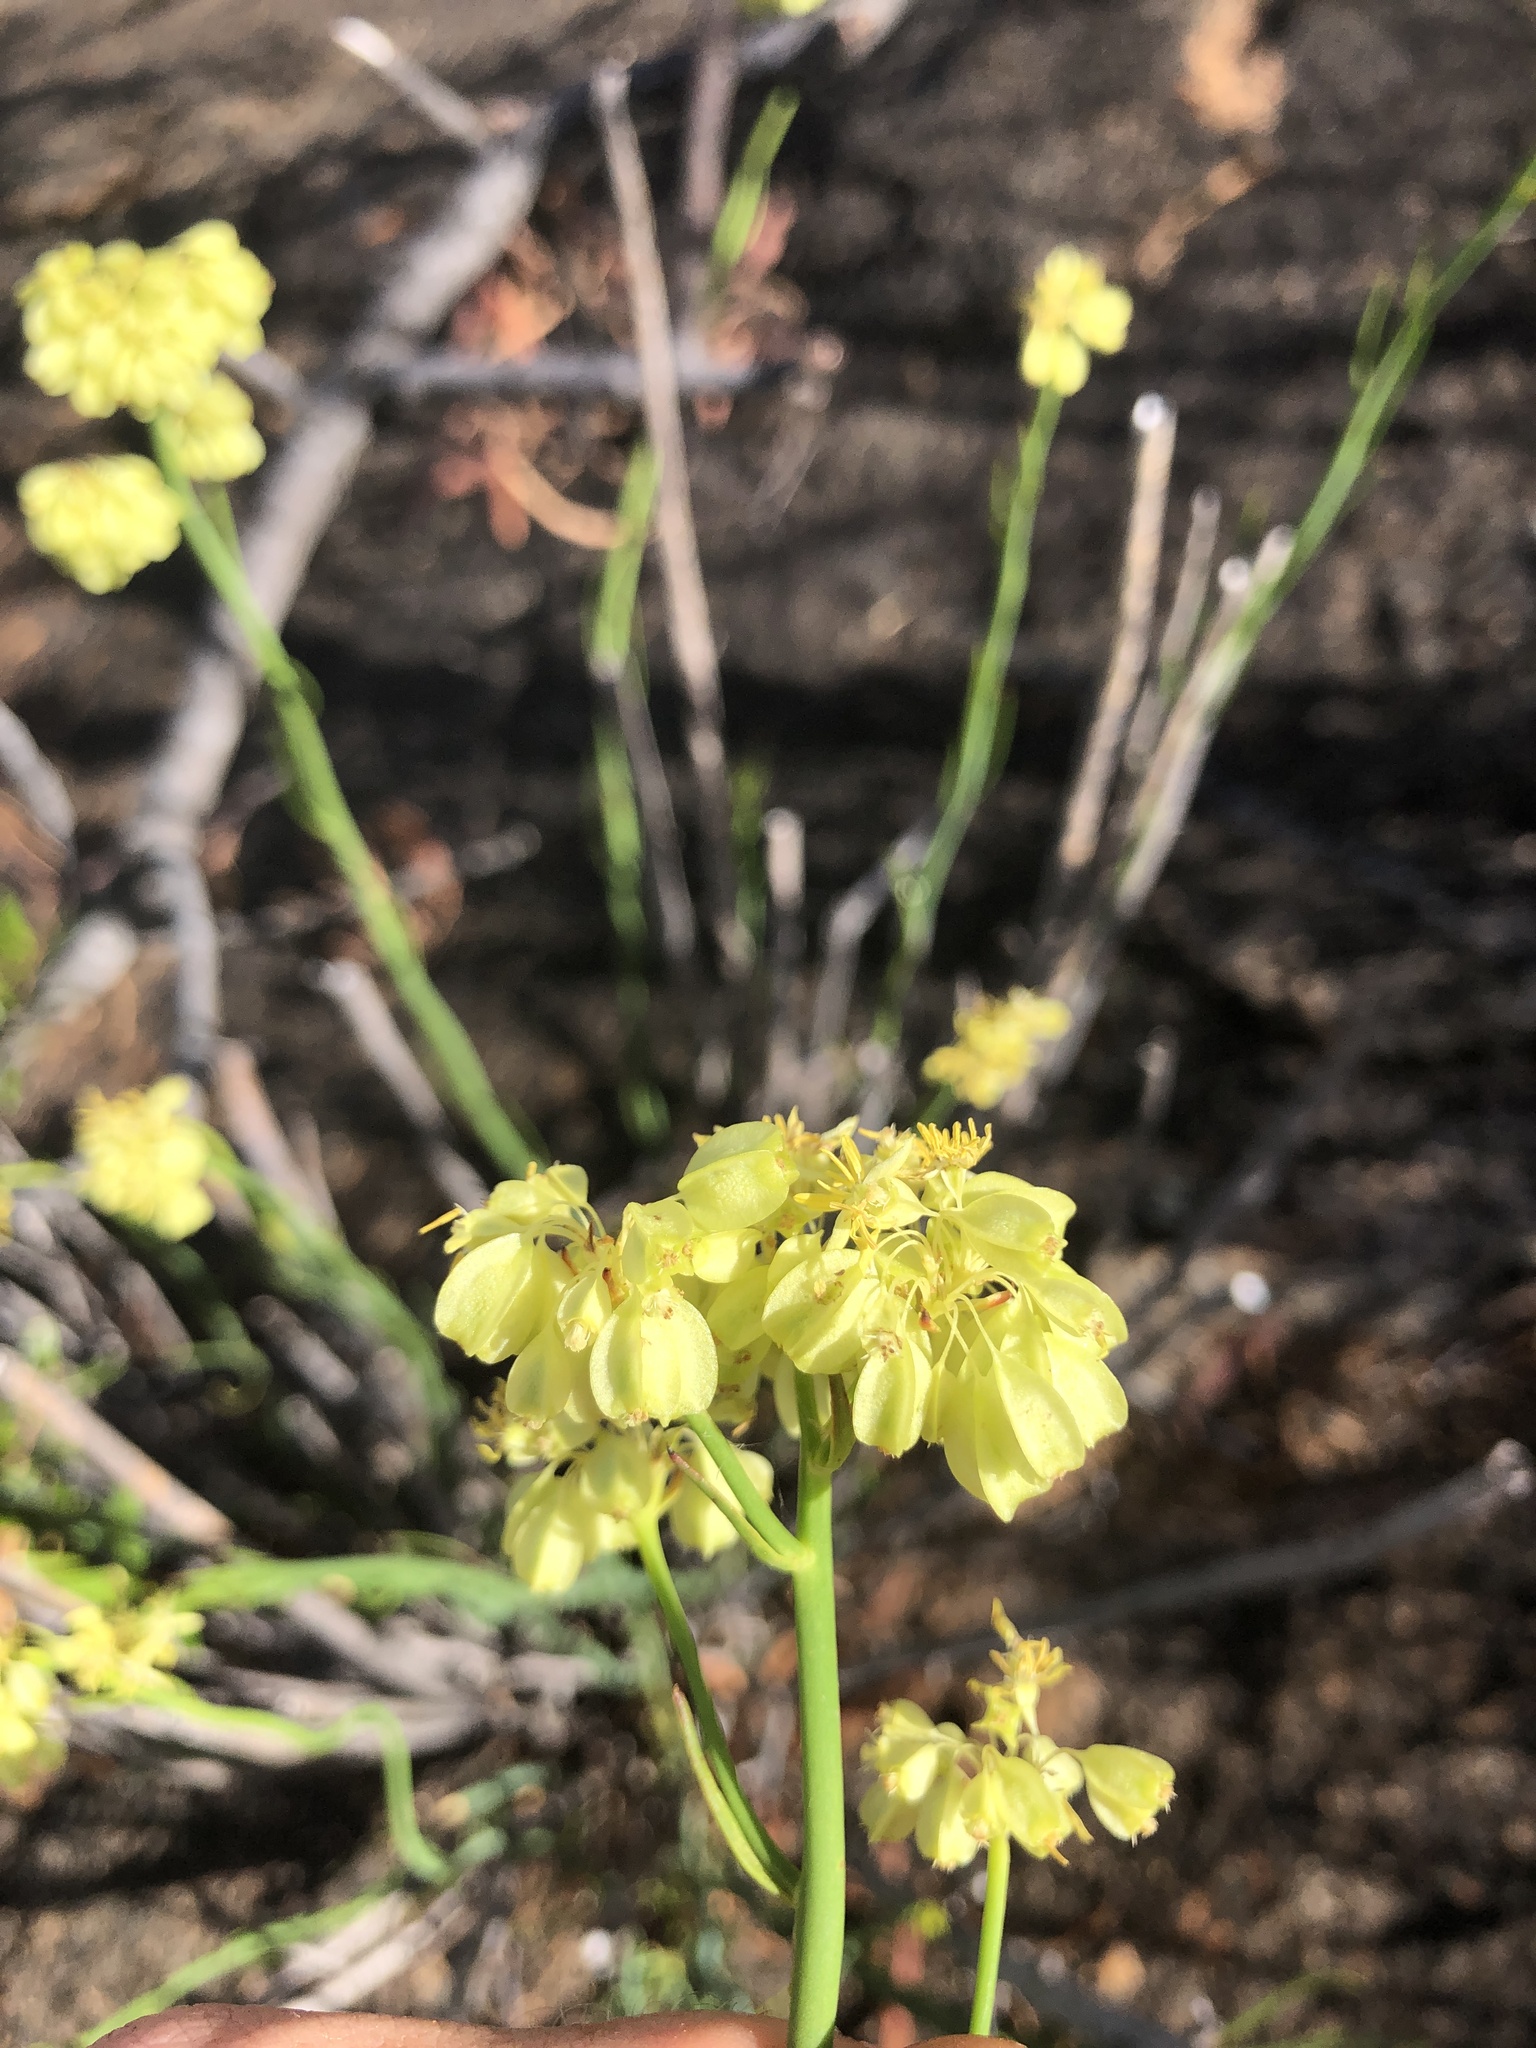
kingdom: Plantae
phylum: Tracheophyta
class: Magnoliopsida
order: Saxifragales
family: Haloragaceae
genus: Glischrocaryon
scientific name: Glischrocaryon behrii
